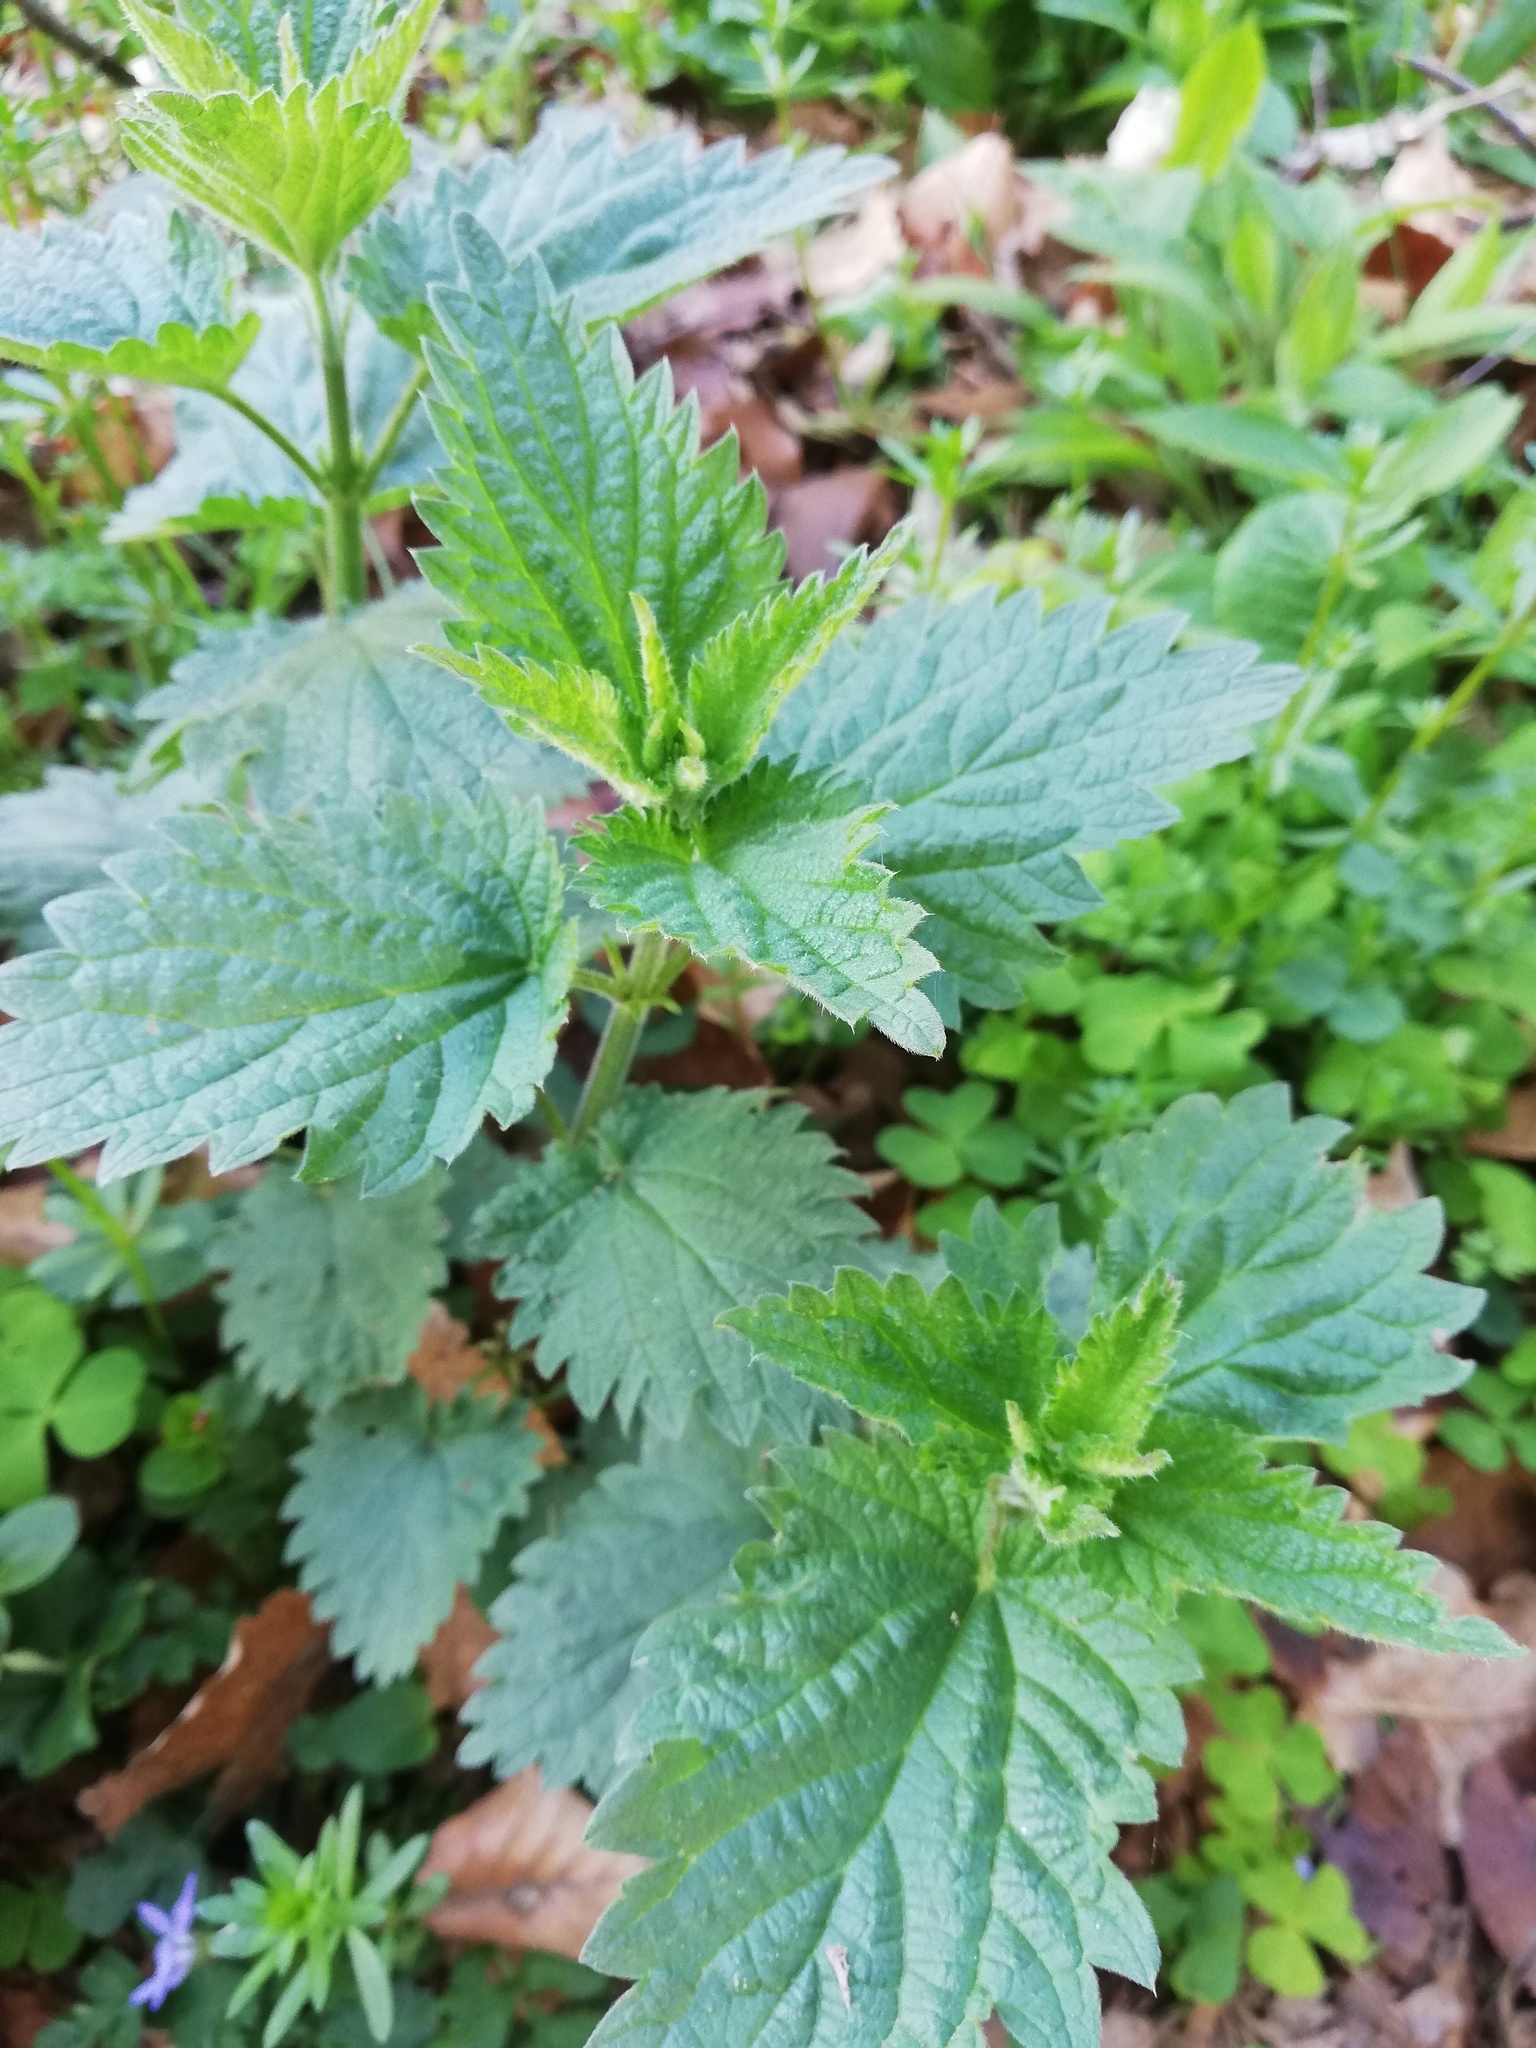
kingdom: Plantae
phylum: Tracheophyta
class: Magnoliopsida
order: Rosales
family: Urticaceae
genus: Urtica
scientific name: Urtica dioica
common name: Common nettle
